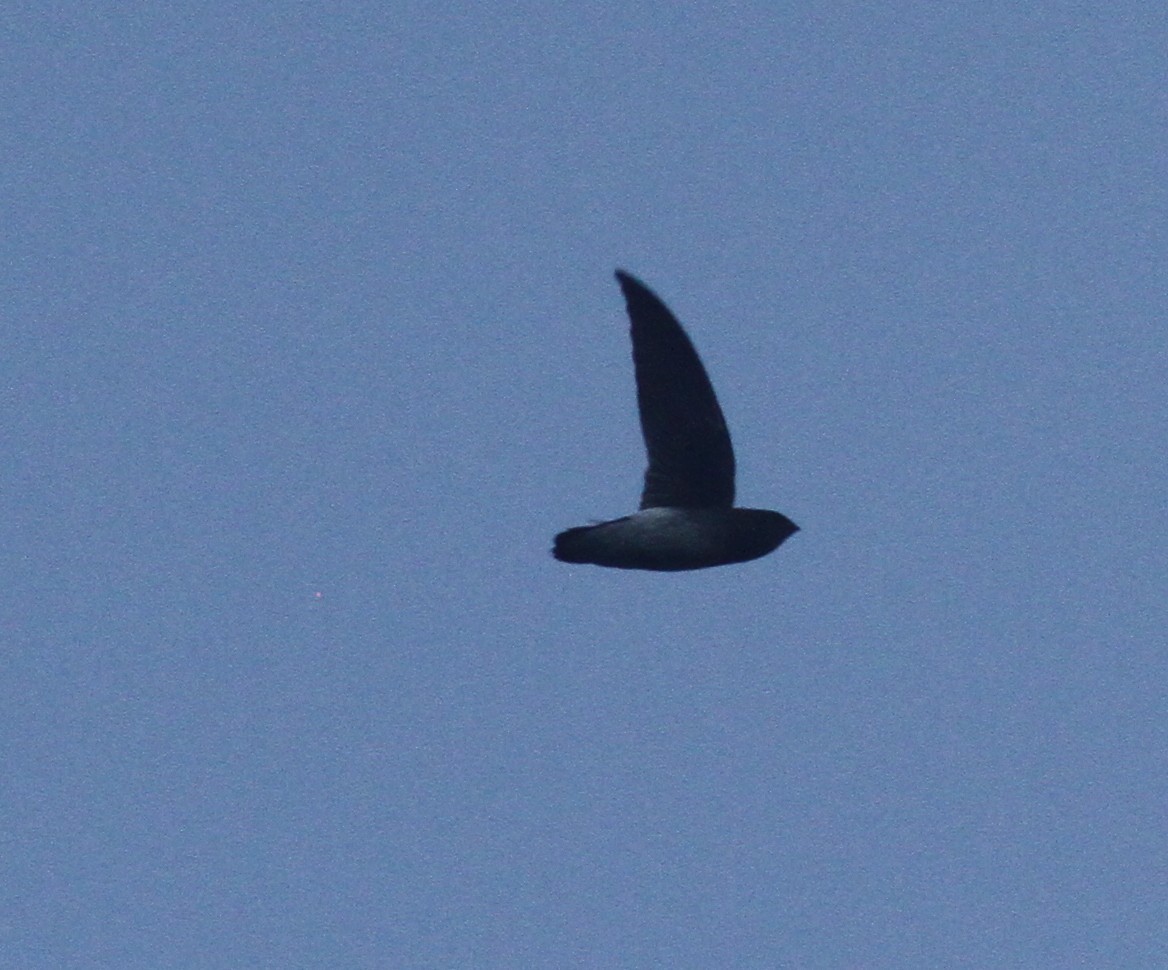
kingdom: Animalia
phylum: Chordata
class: Aves
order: Apodiformes
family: Apodidae
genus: Zoonavena
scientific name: Zoonavena sylvatica
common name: White-rumped spinetail
